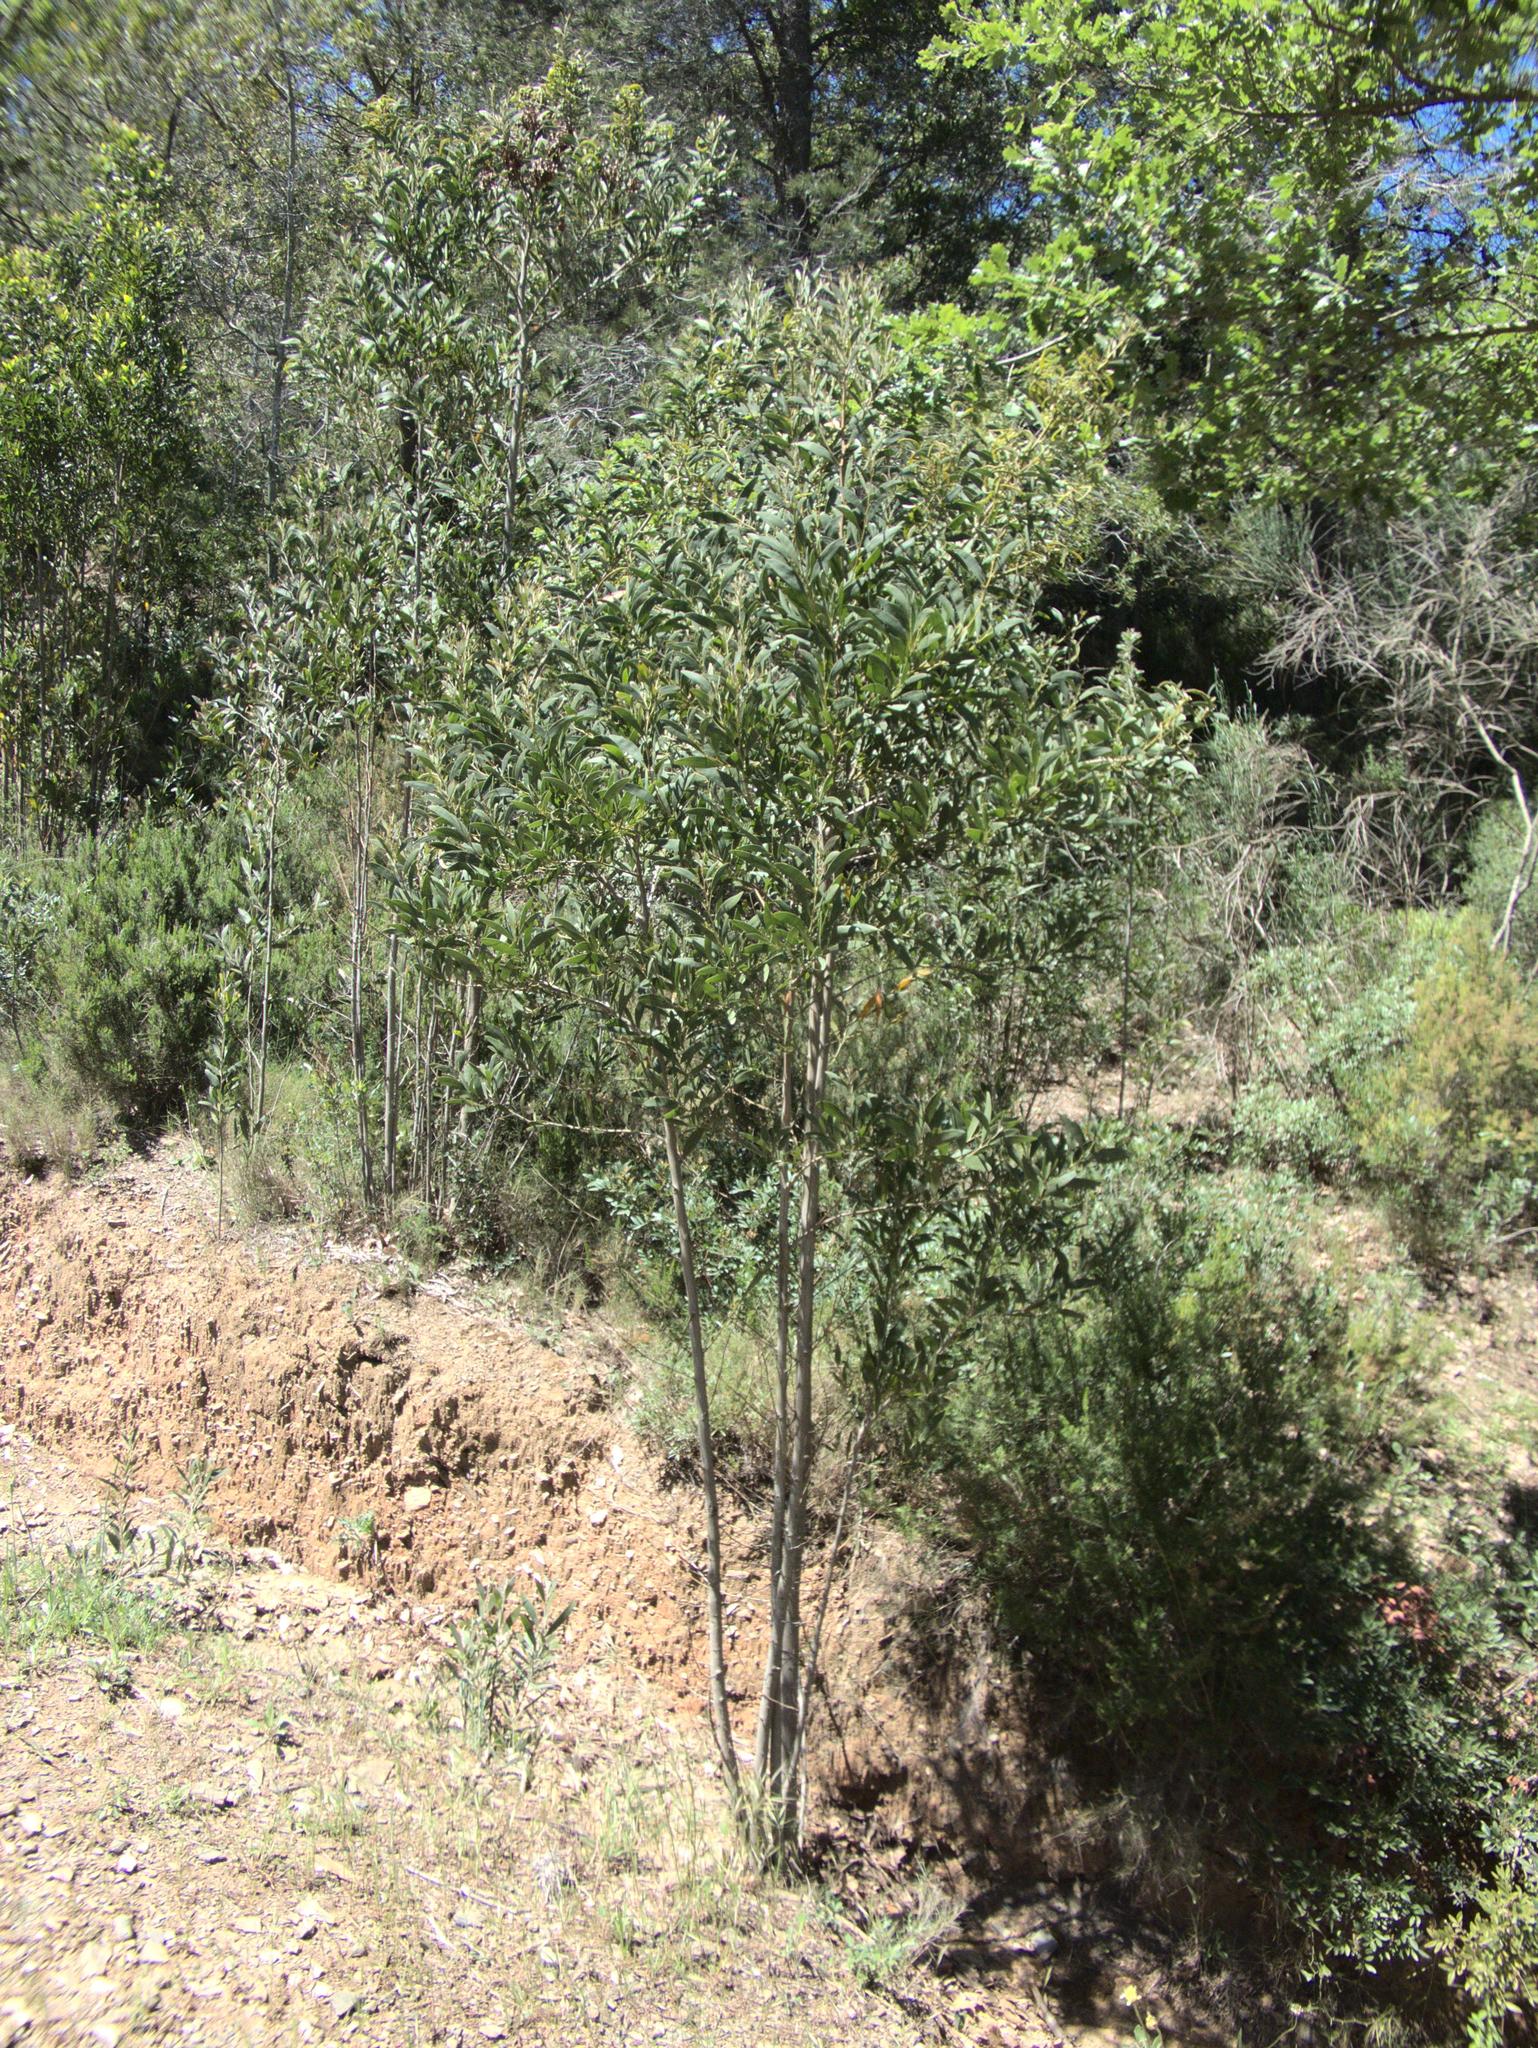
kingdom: Plantae
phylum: Tracheophyta
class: Magnoliopsida
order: Fabales
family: Fabaceae
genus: Acacia
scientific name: Acacia melanoxylon
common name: Blackwood
